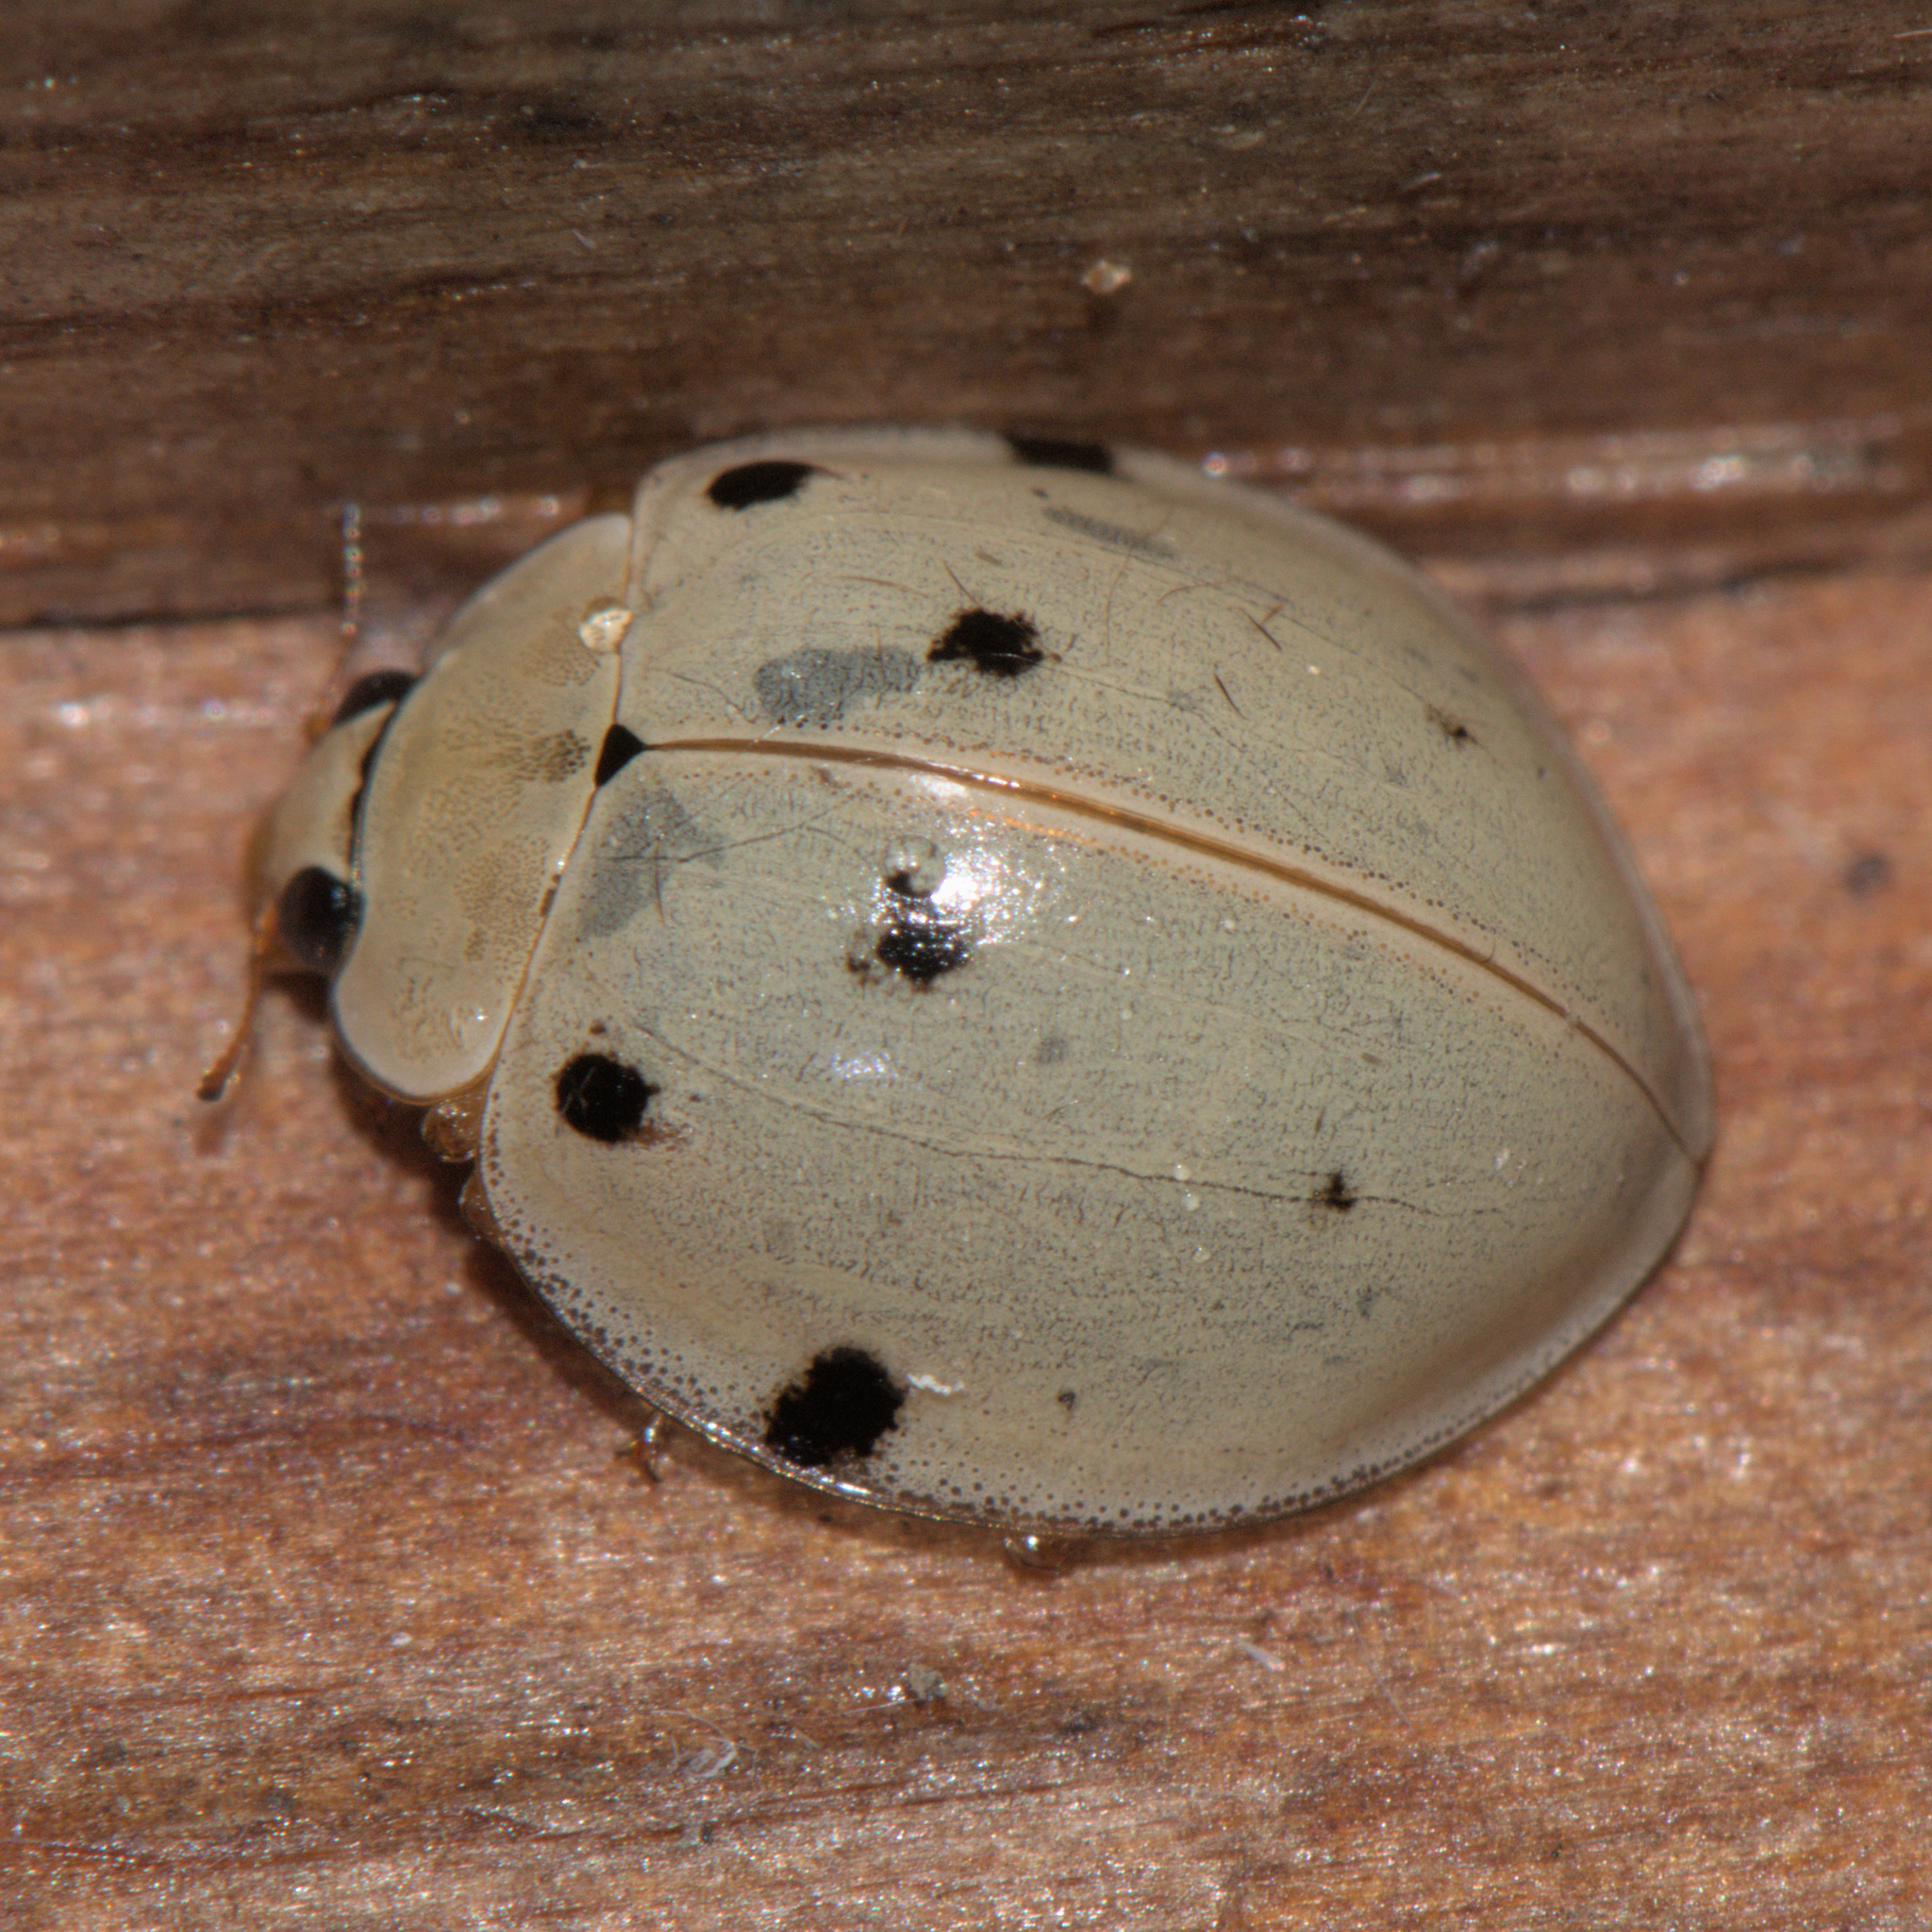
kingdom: Animalia
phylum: Arthropoda
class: Insecta
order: Coleoptera
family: Coccinellidae
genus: Harmonia
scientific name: Harmonia eucharis
